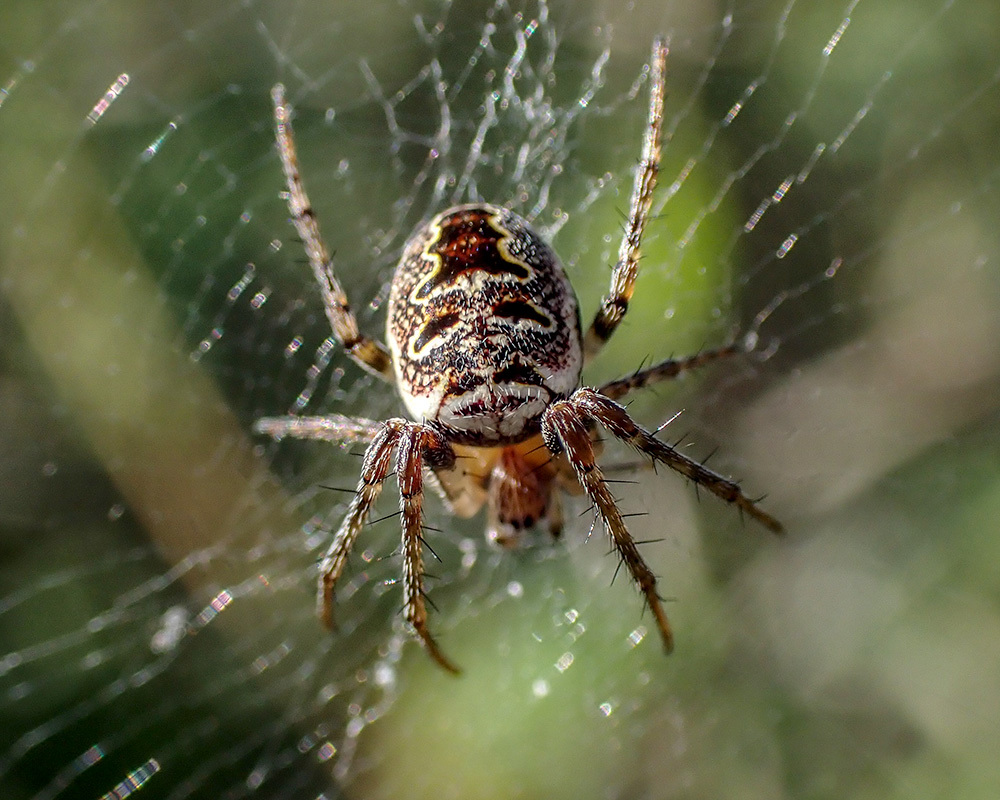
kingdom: Animalia
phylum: Arthropoda
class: Arachnida
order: Araneae
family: Araneidae
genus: Zilla
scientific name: Zilla diodia
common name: Zilla diodia
